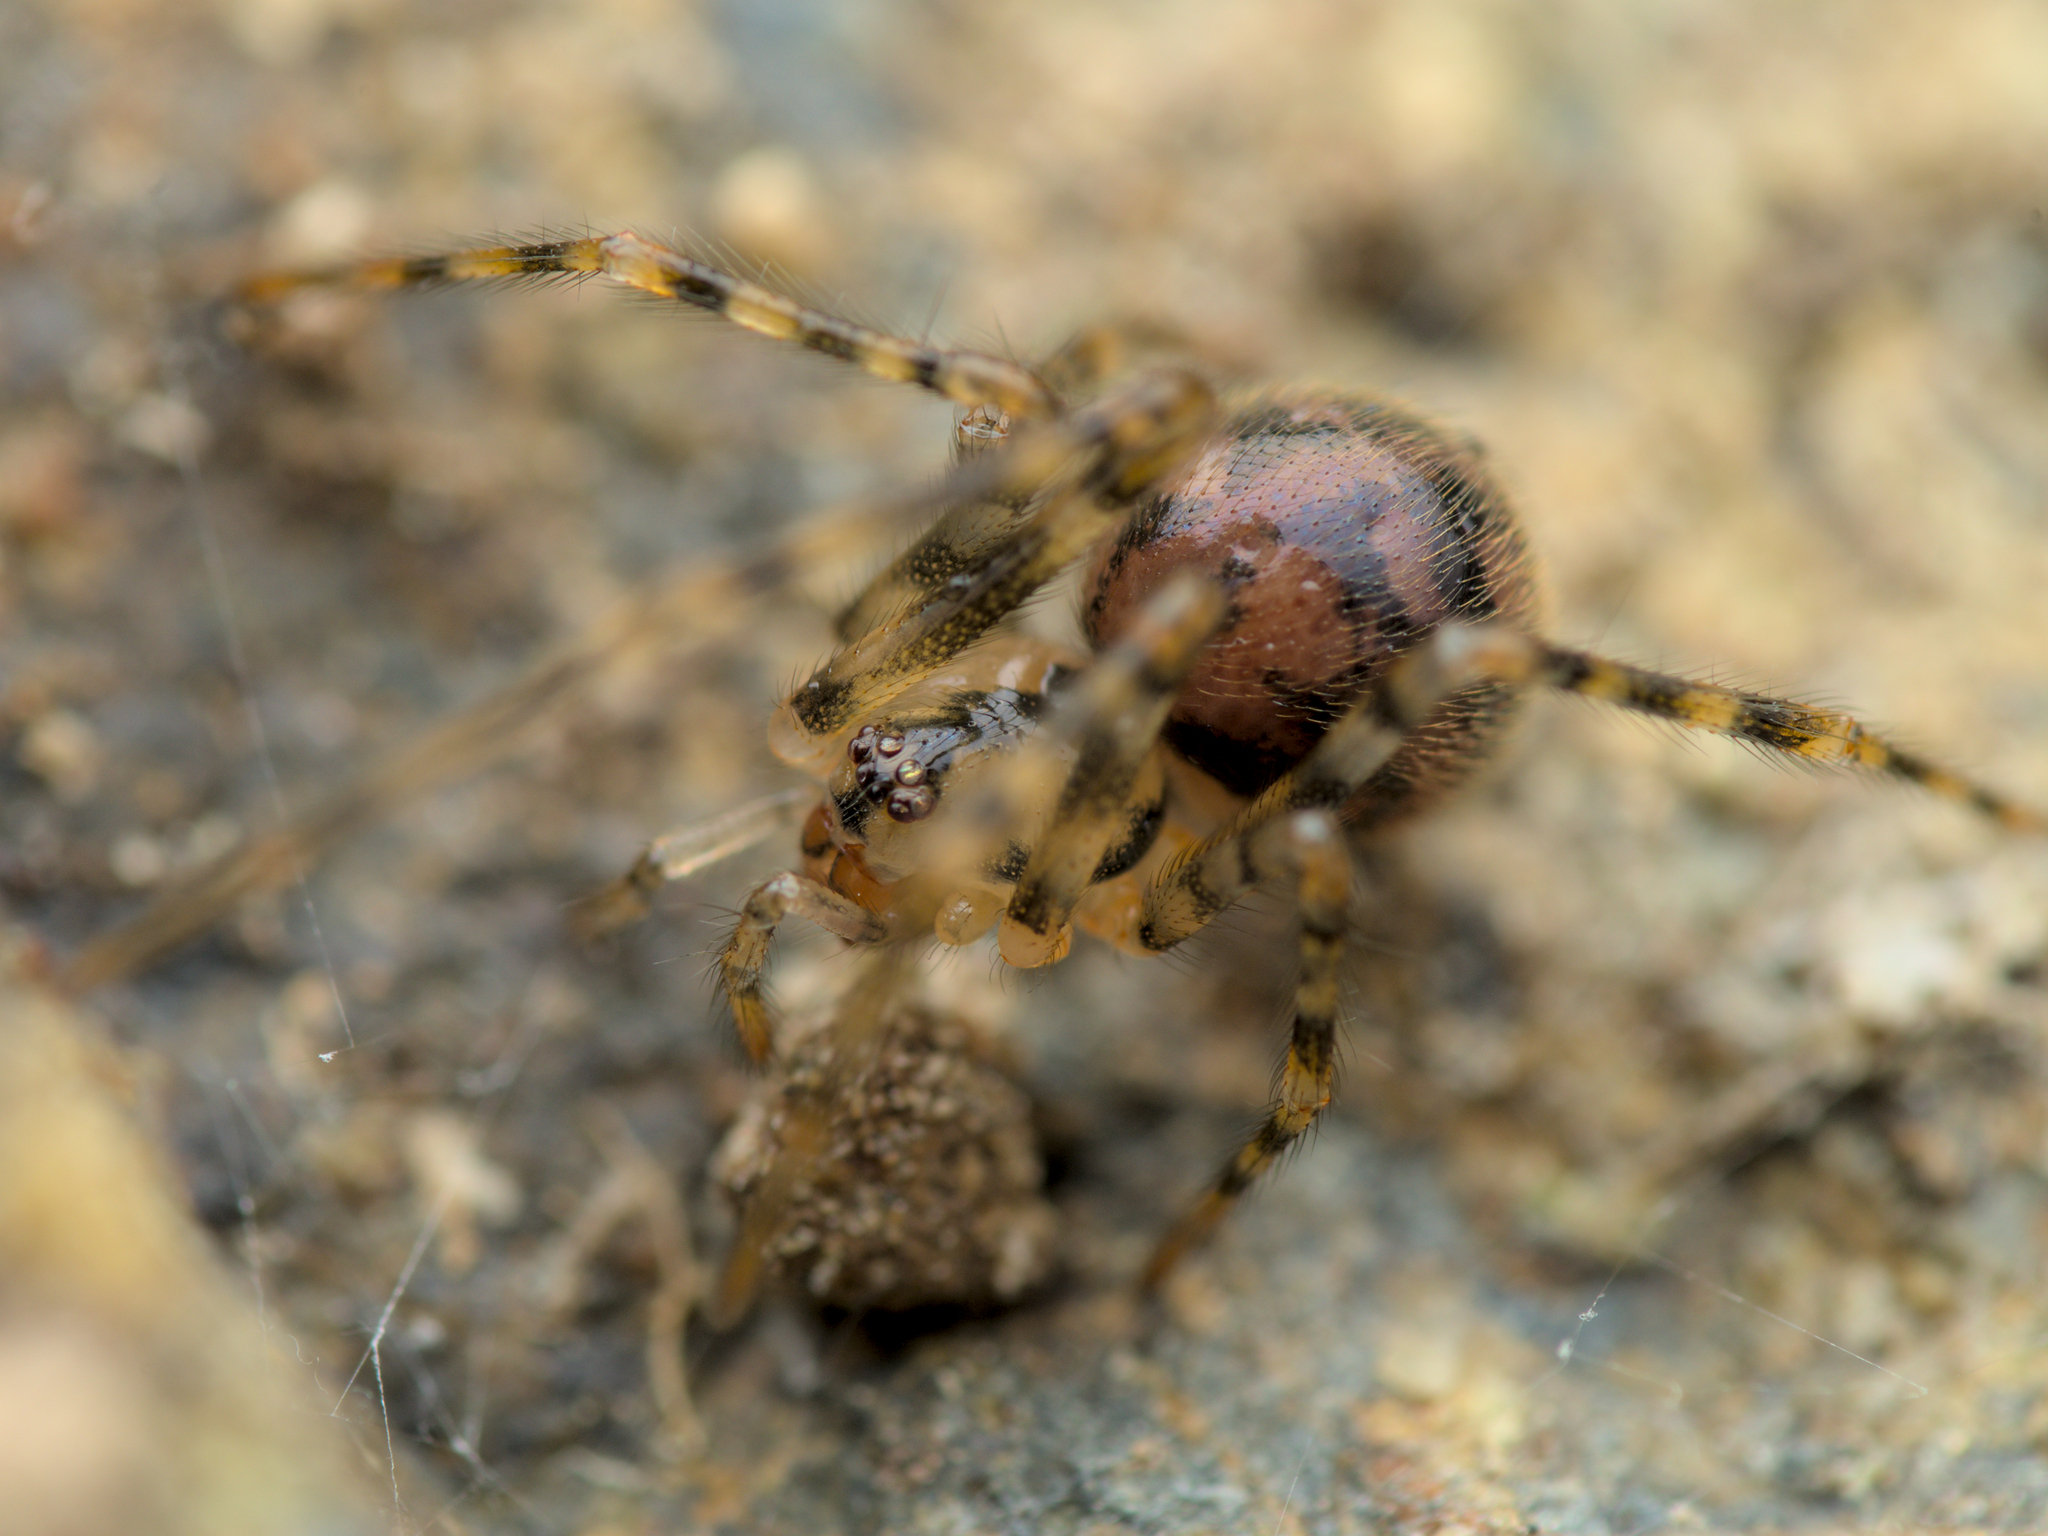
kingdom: Animalia
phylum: Arthropoda
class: Arachnida
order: Araneae
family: Nesticidae
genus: Nesticus
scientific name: Nesticus cellulanus
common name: Comb-footed cellar spider
